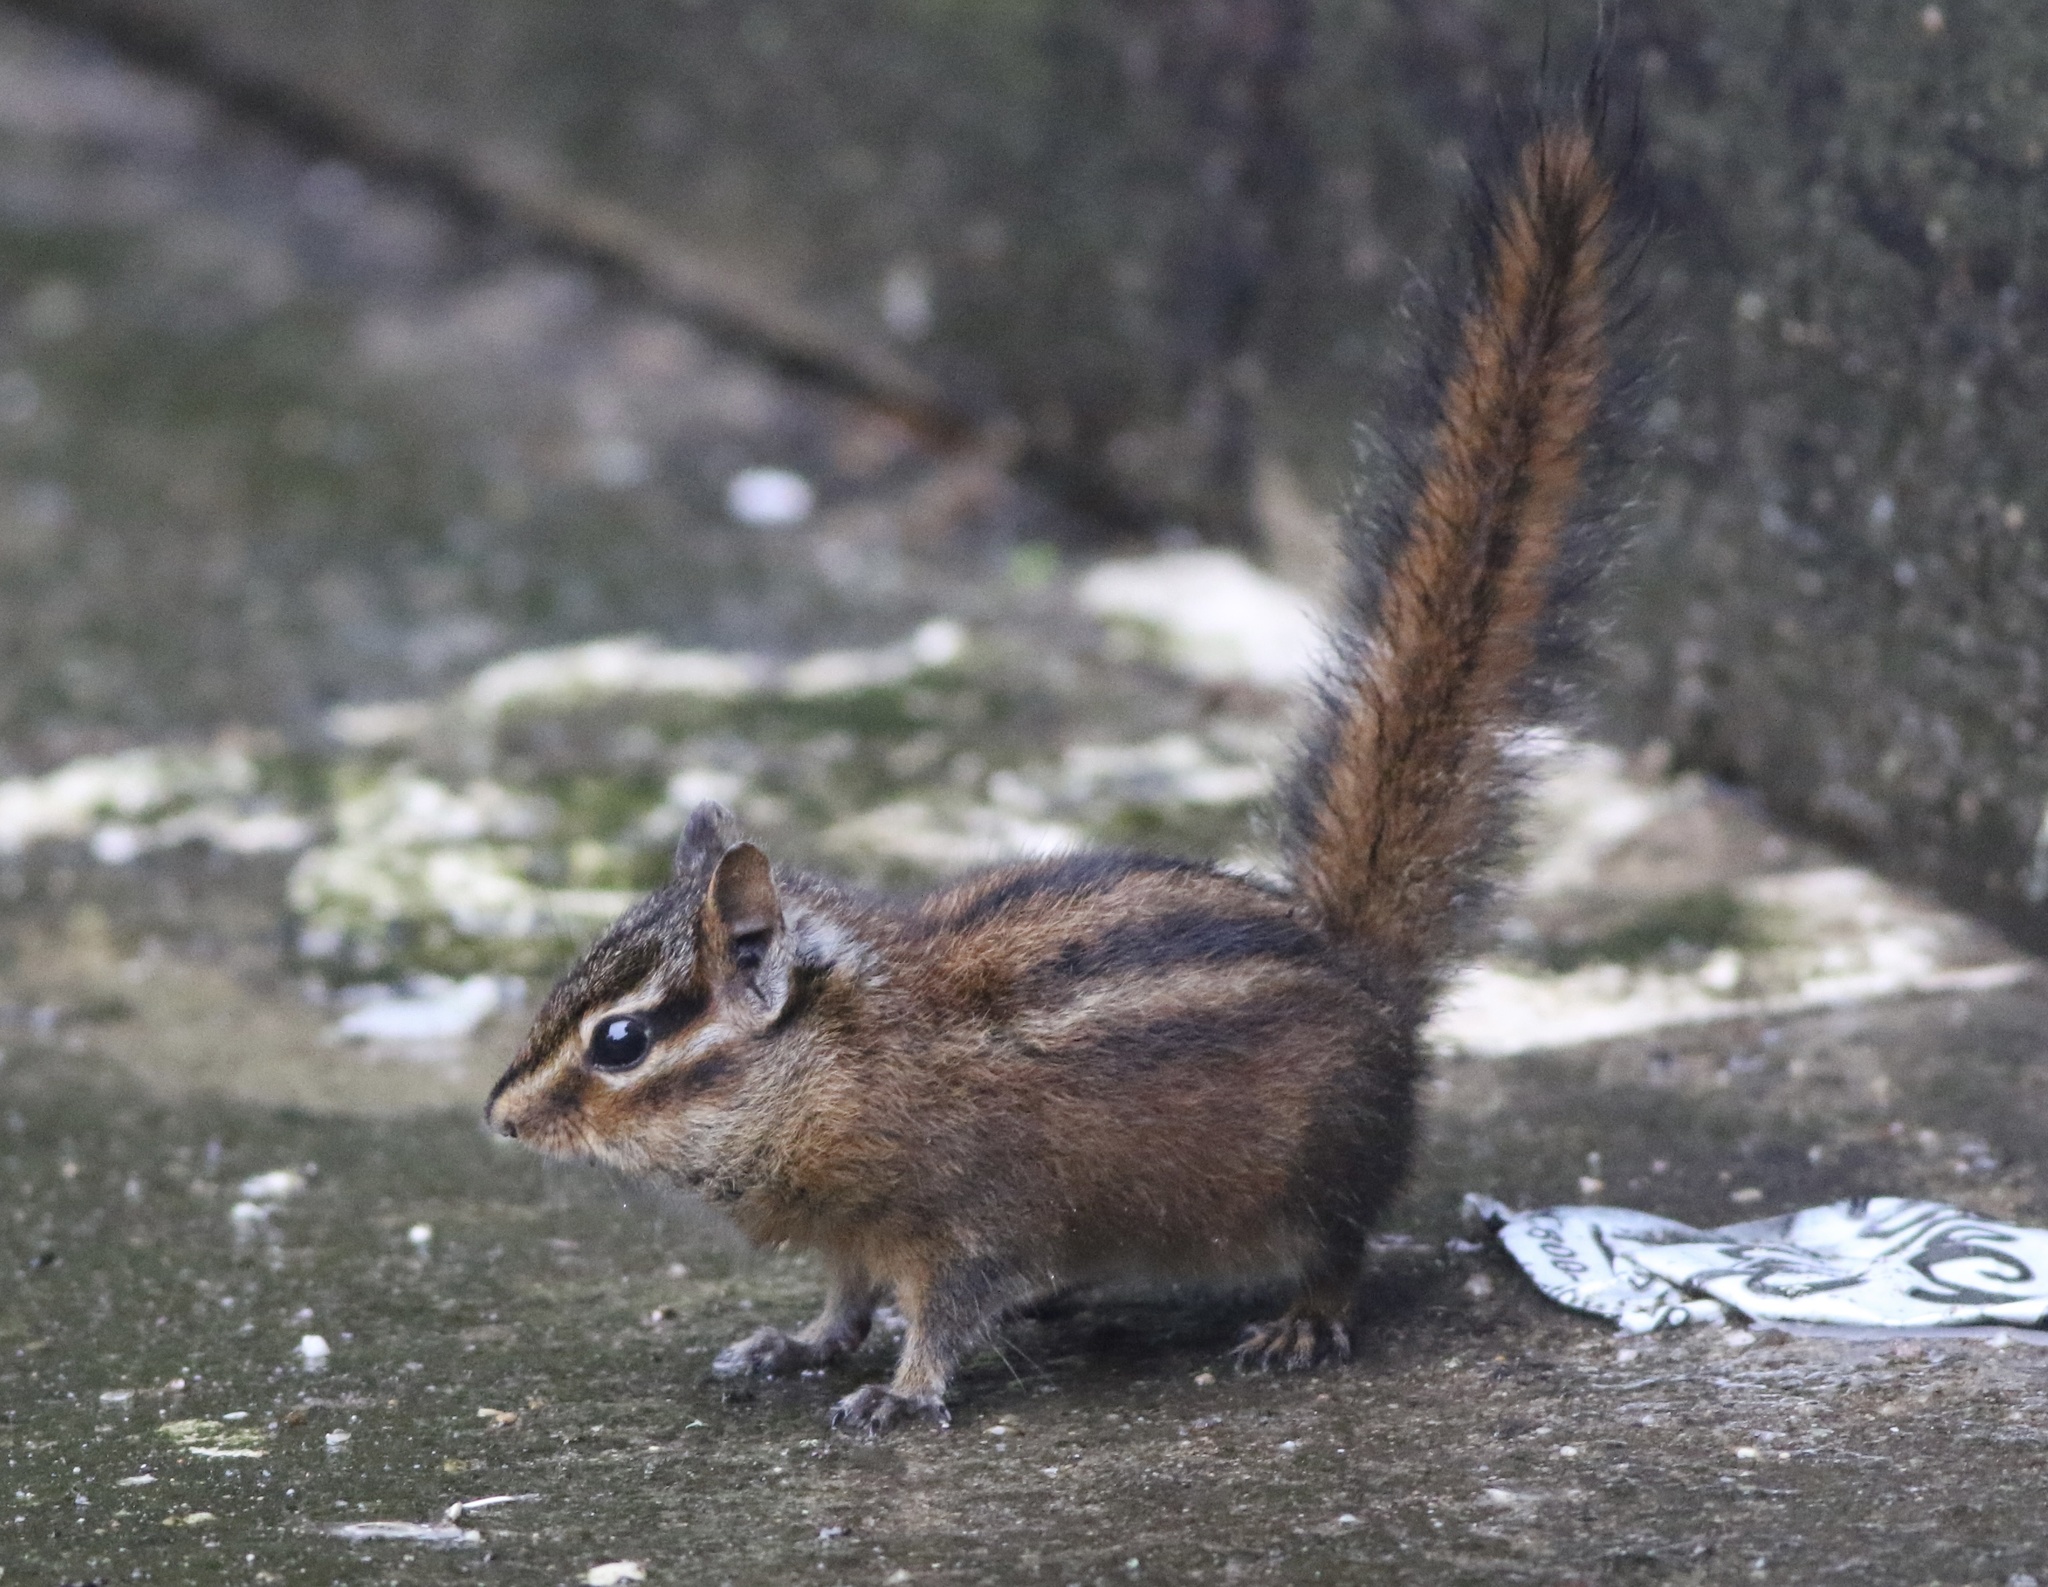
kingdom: Animalia
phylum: Chordata
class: Mammalia
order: Rodentia
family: Sciuridae
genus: Tamias
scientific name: Tamias sonomae
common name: Sonoma chipmunk
